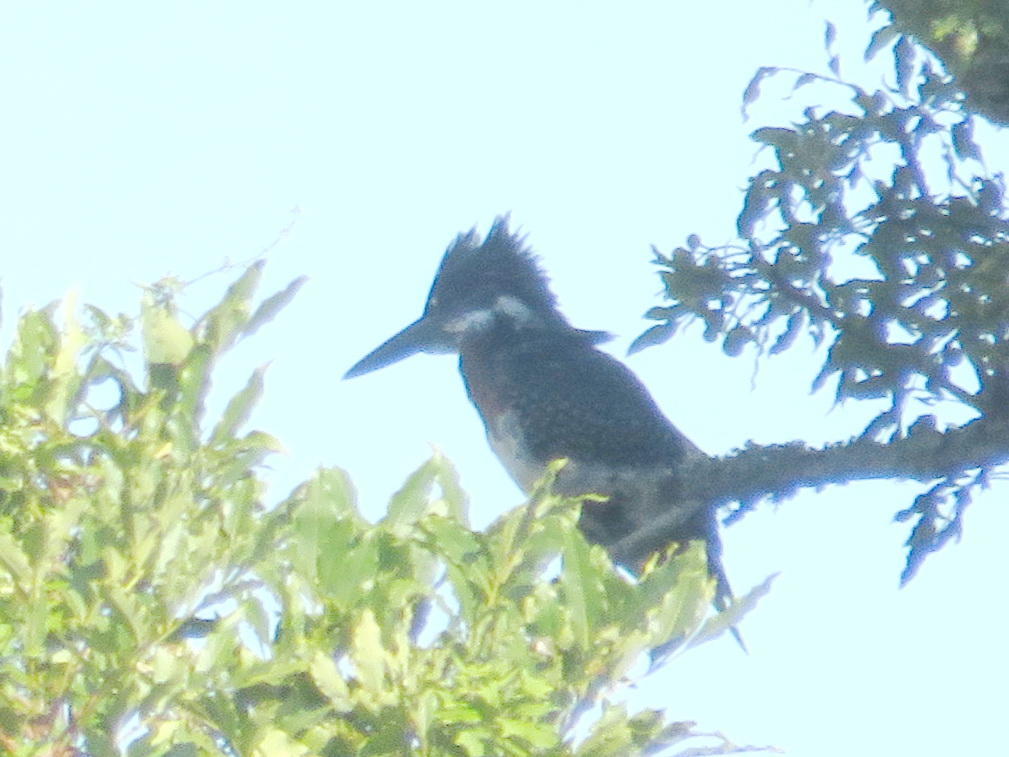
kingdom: Animalia
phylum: Chordata
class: Aves
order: Coraciiformes
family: Alcedinidae
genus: Megaceryle
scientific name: Megaceryle maxima
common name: Giant kingfisher
